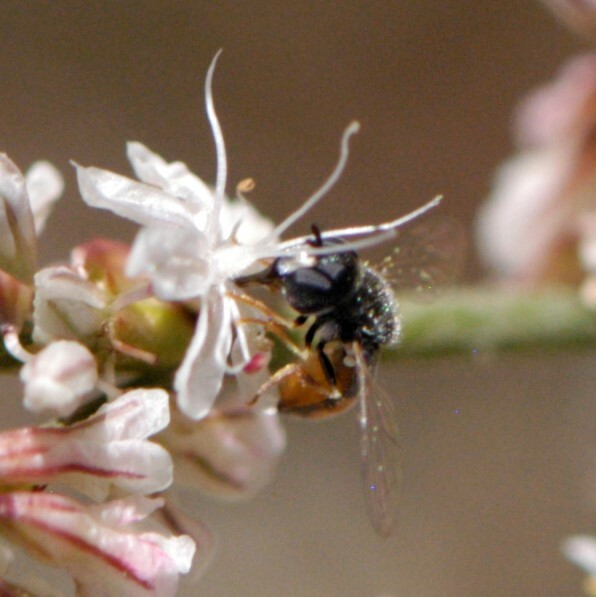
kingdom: Animalia
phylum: Arthropoda
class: Insecta
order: Diptera
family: Syrphidae
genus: Paragus
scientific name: Paragus haemorrhous
